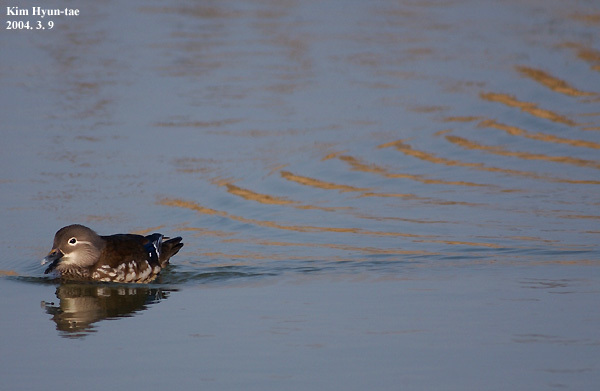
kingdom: Animalia
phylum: Chordata
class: Aves
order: Anseriformes
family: Anatidae
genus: Aix
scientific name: Aix galericulata
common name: Mandarin duck
